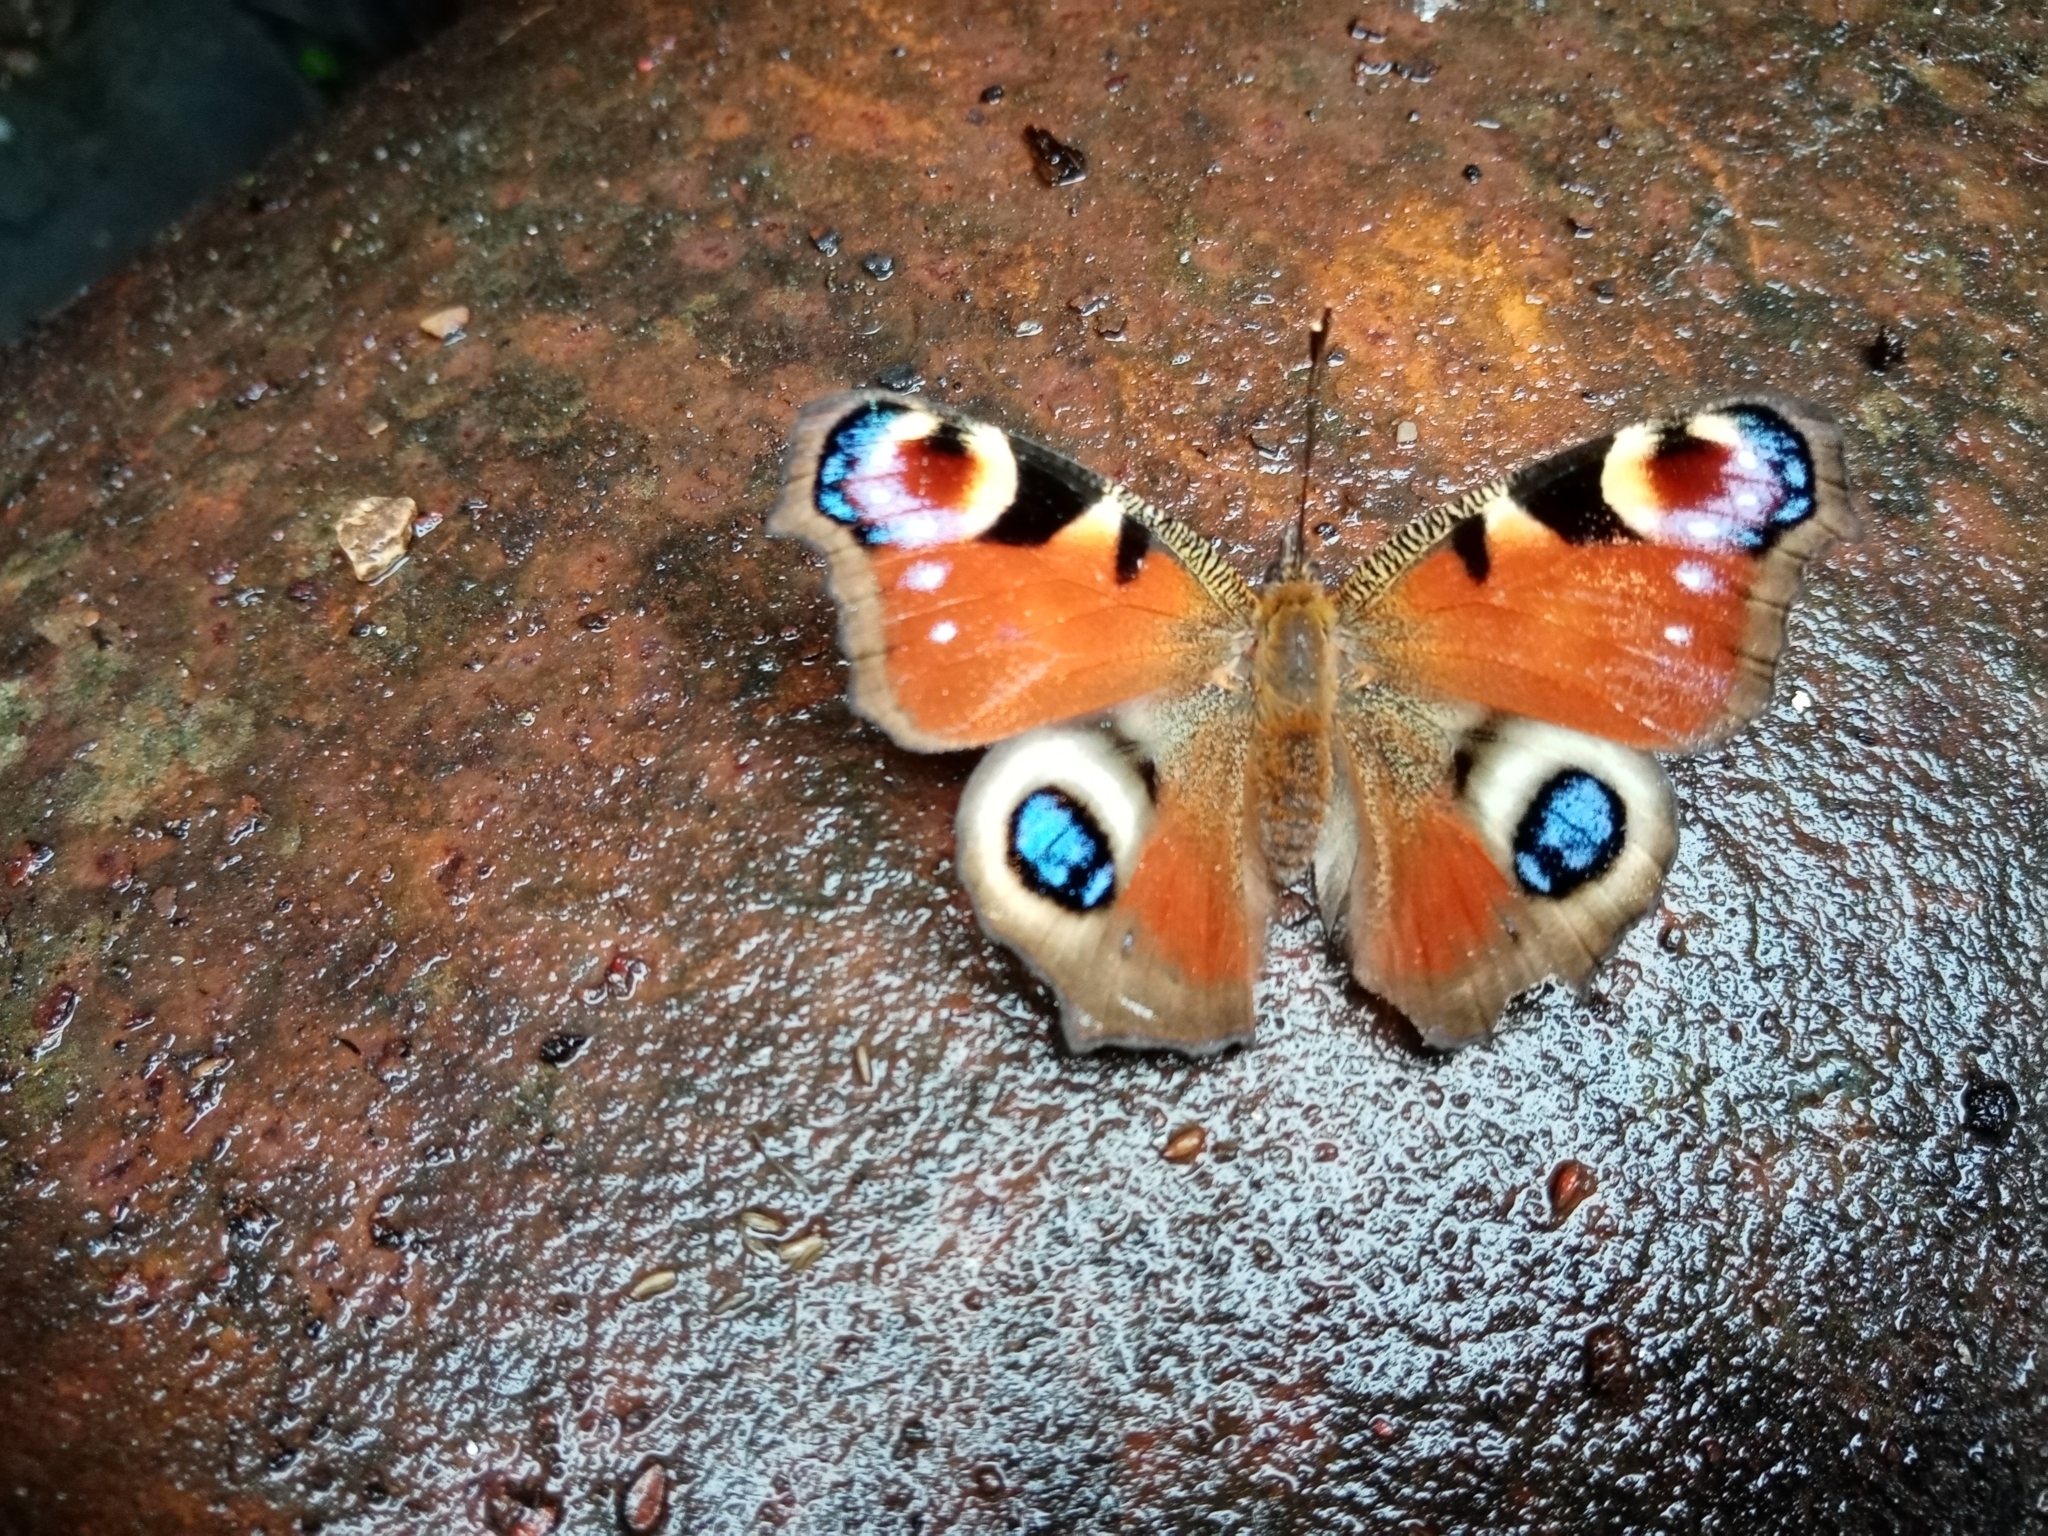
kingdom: Animalia
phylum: Arthropoda
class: Insecta
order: Lepidoptera
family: Nymphalidae
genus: Aglais
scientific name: Aglais io
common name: Peacock
